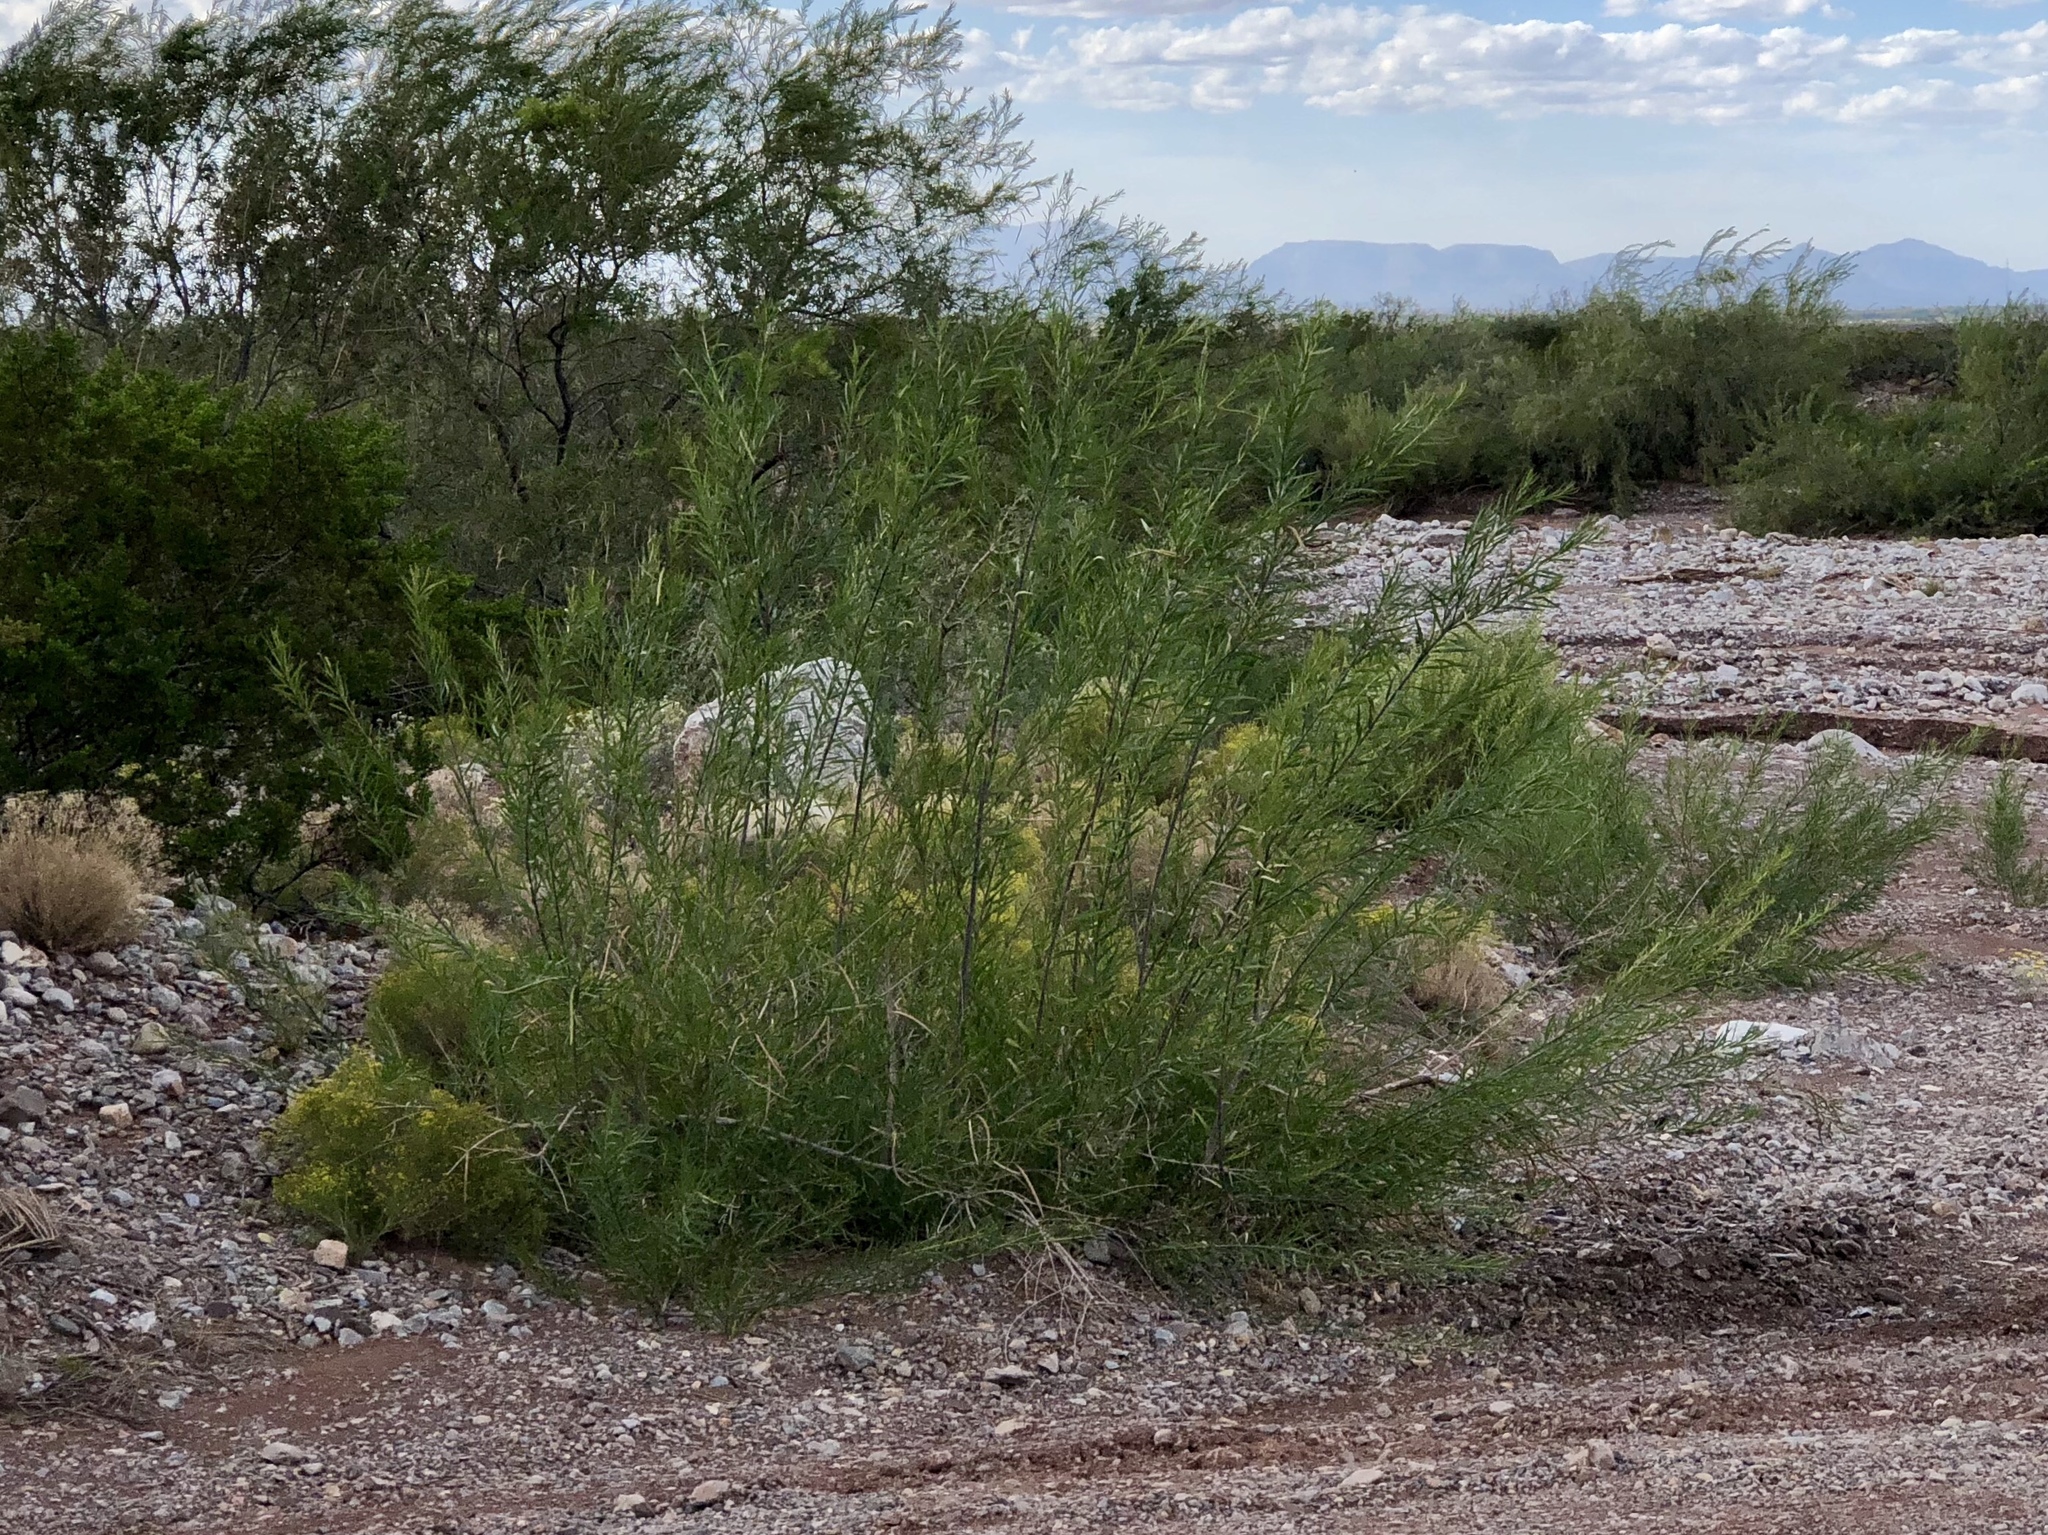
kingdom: Plantae
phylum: Tracheophyta
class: Magnoliopsida
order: Lamiales
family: Bignoniaceae
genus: Chilopsis
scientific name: Chilopsis linearis
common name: Desert-willow
